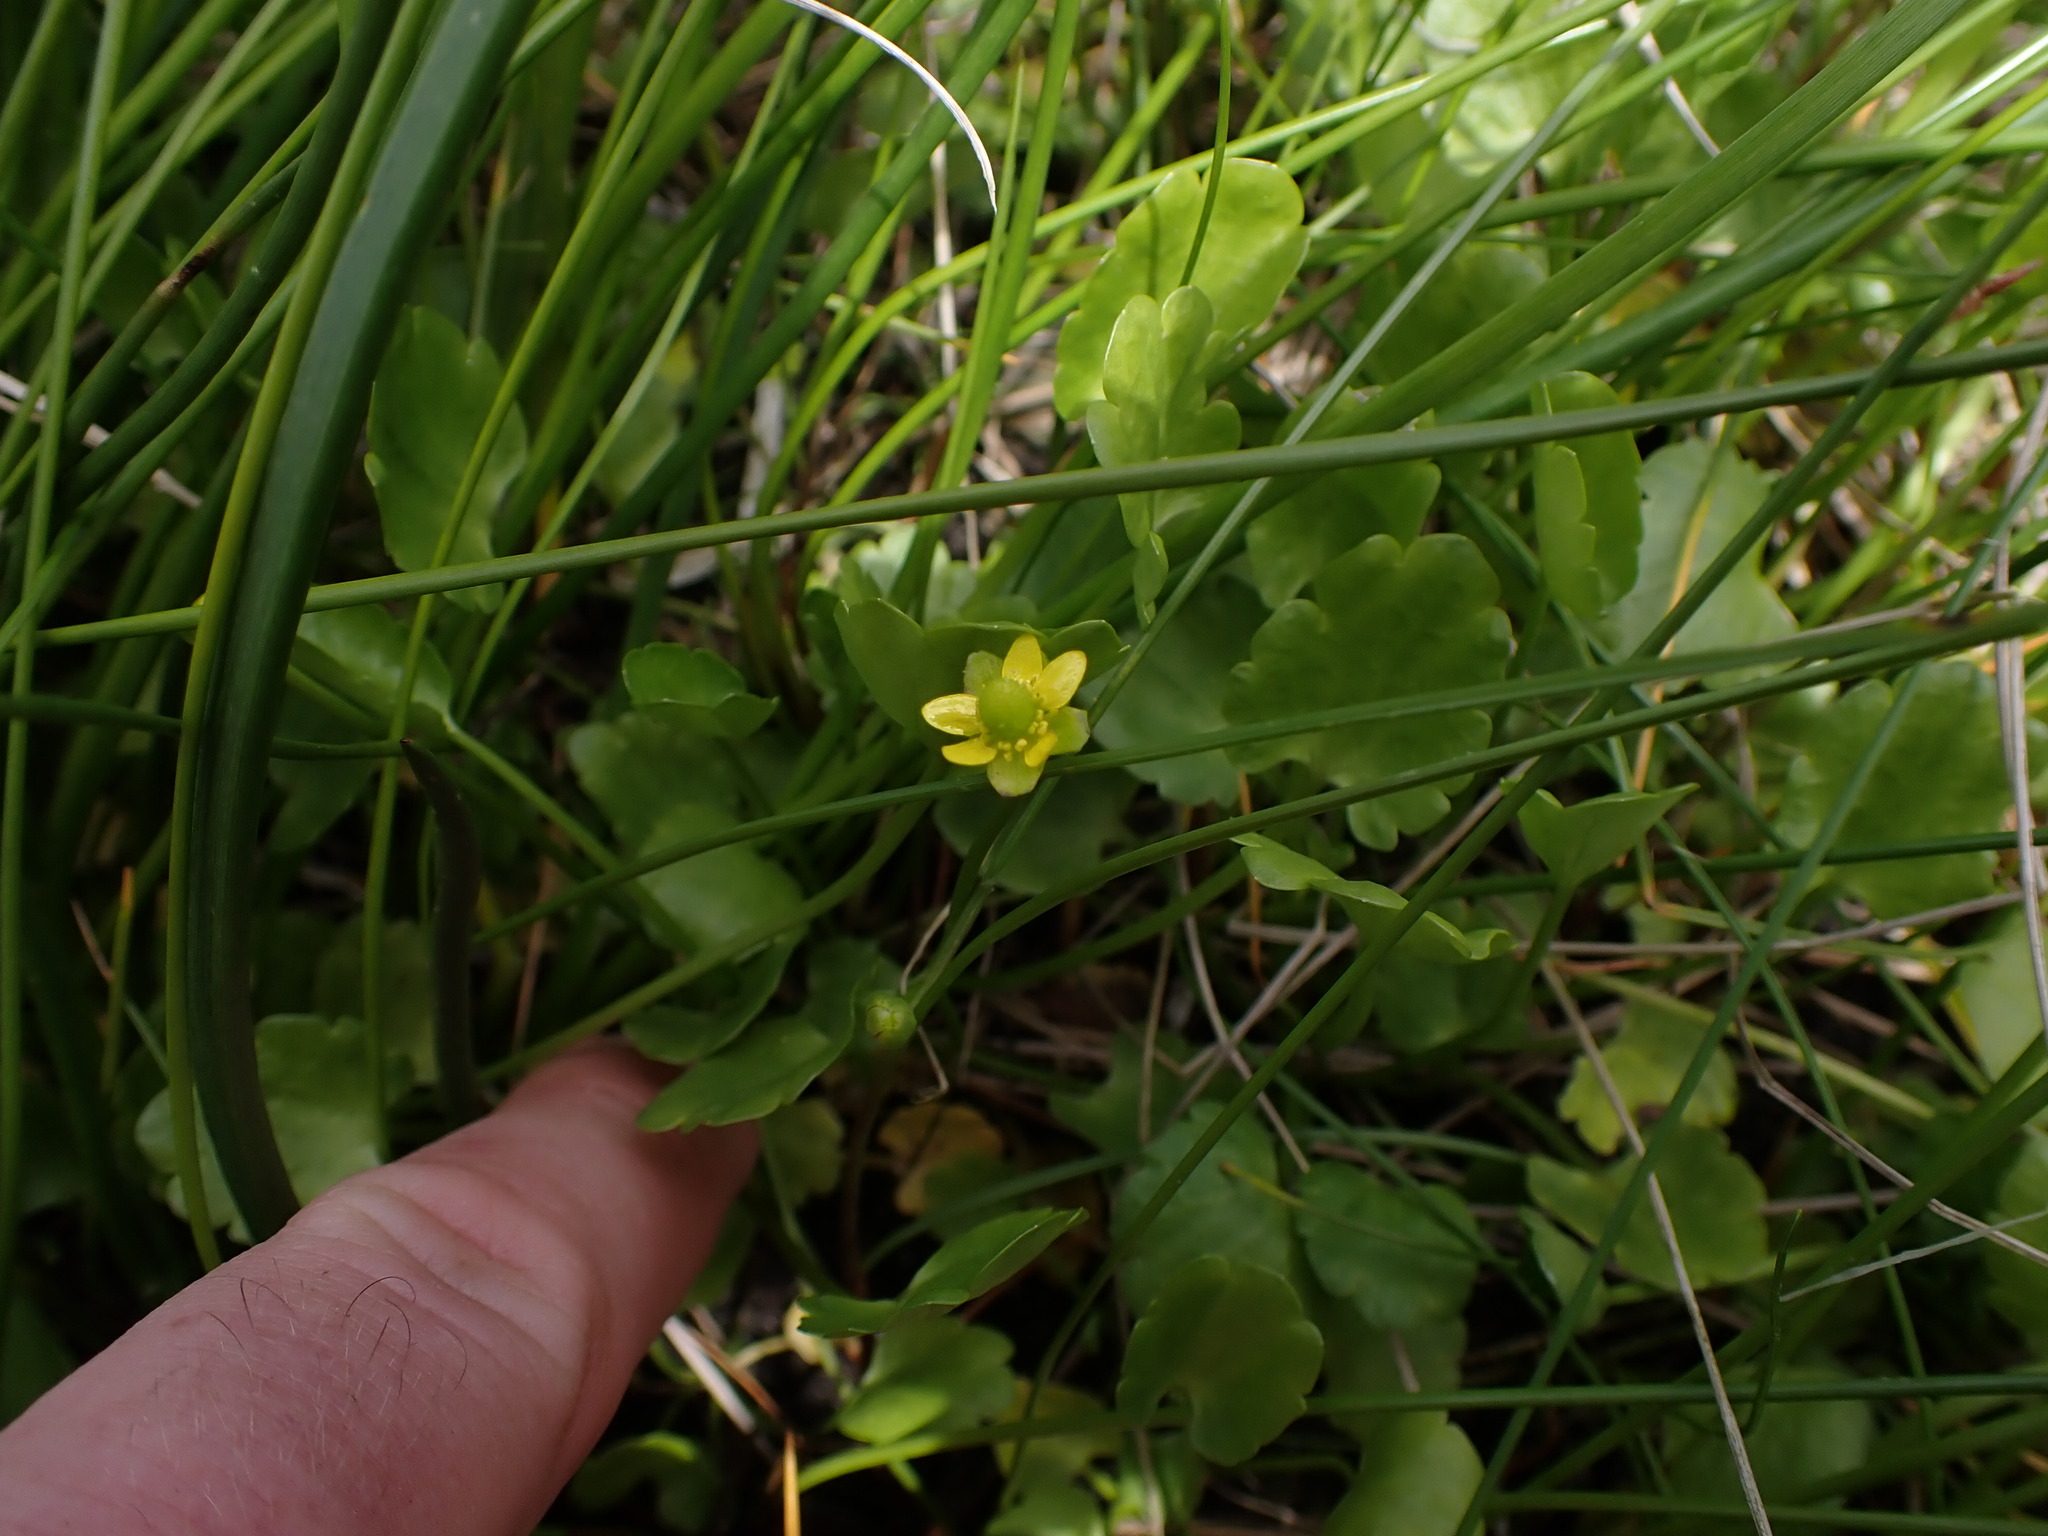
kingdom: Plantae
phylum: Tracheophyta
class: Magnoliopsida
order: Ranunculales
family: Ranunculaceae
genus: Halerpestes
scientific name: Halerpestes cymbalaria
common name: Seaside crowfoot
